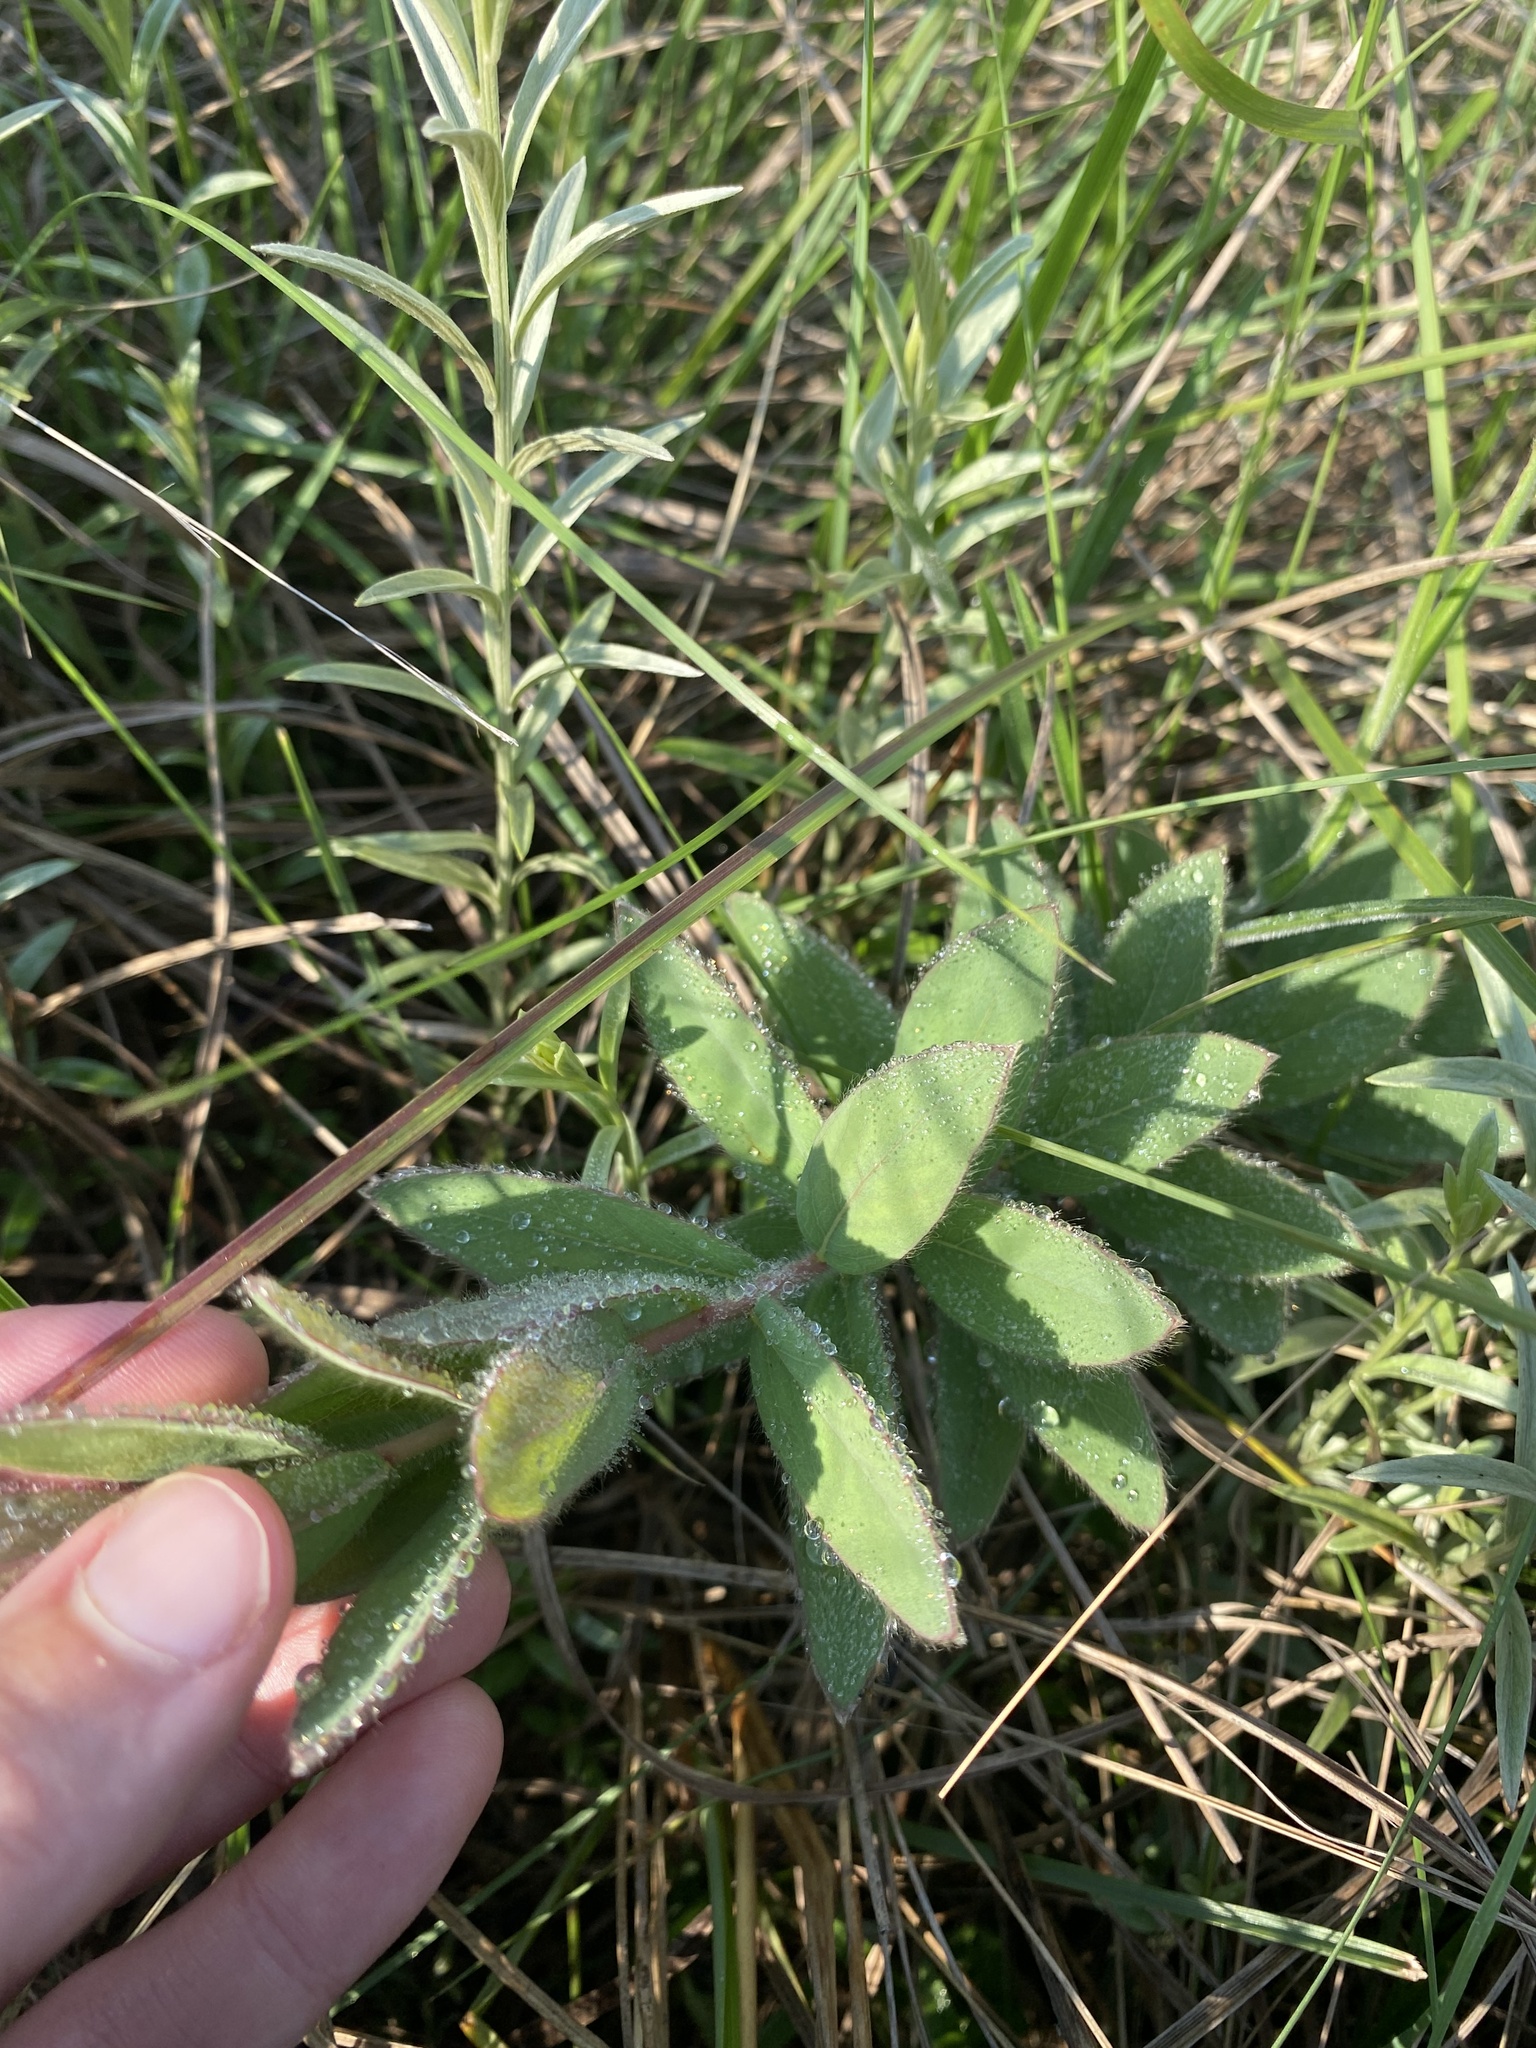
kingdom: Plantae
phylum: Tracheophyta
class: Magnoliopsida
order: Malvales
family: Thymelaeaceae
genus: Gnidia
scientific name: Gnidia kraussiana
